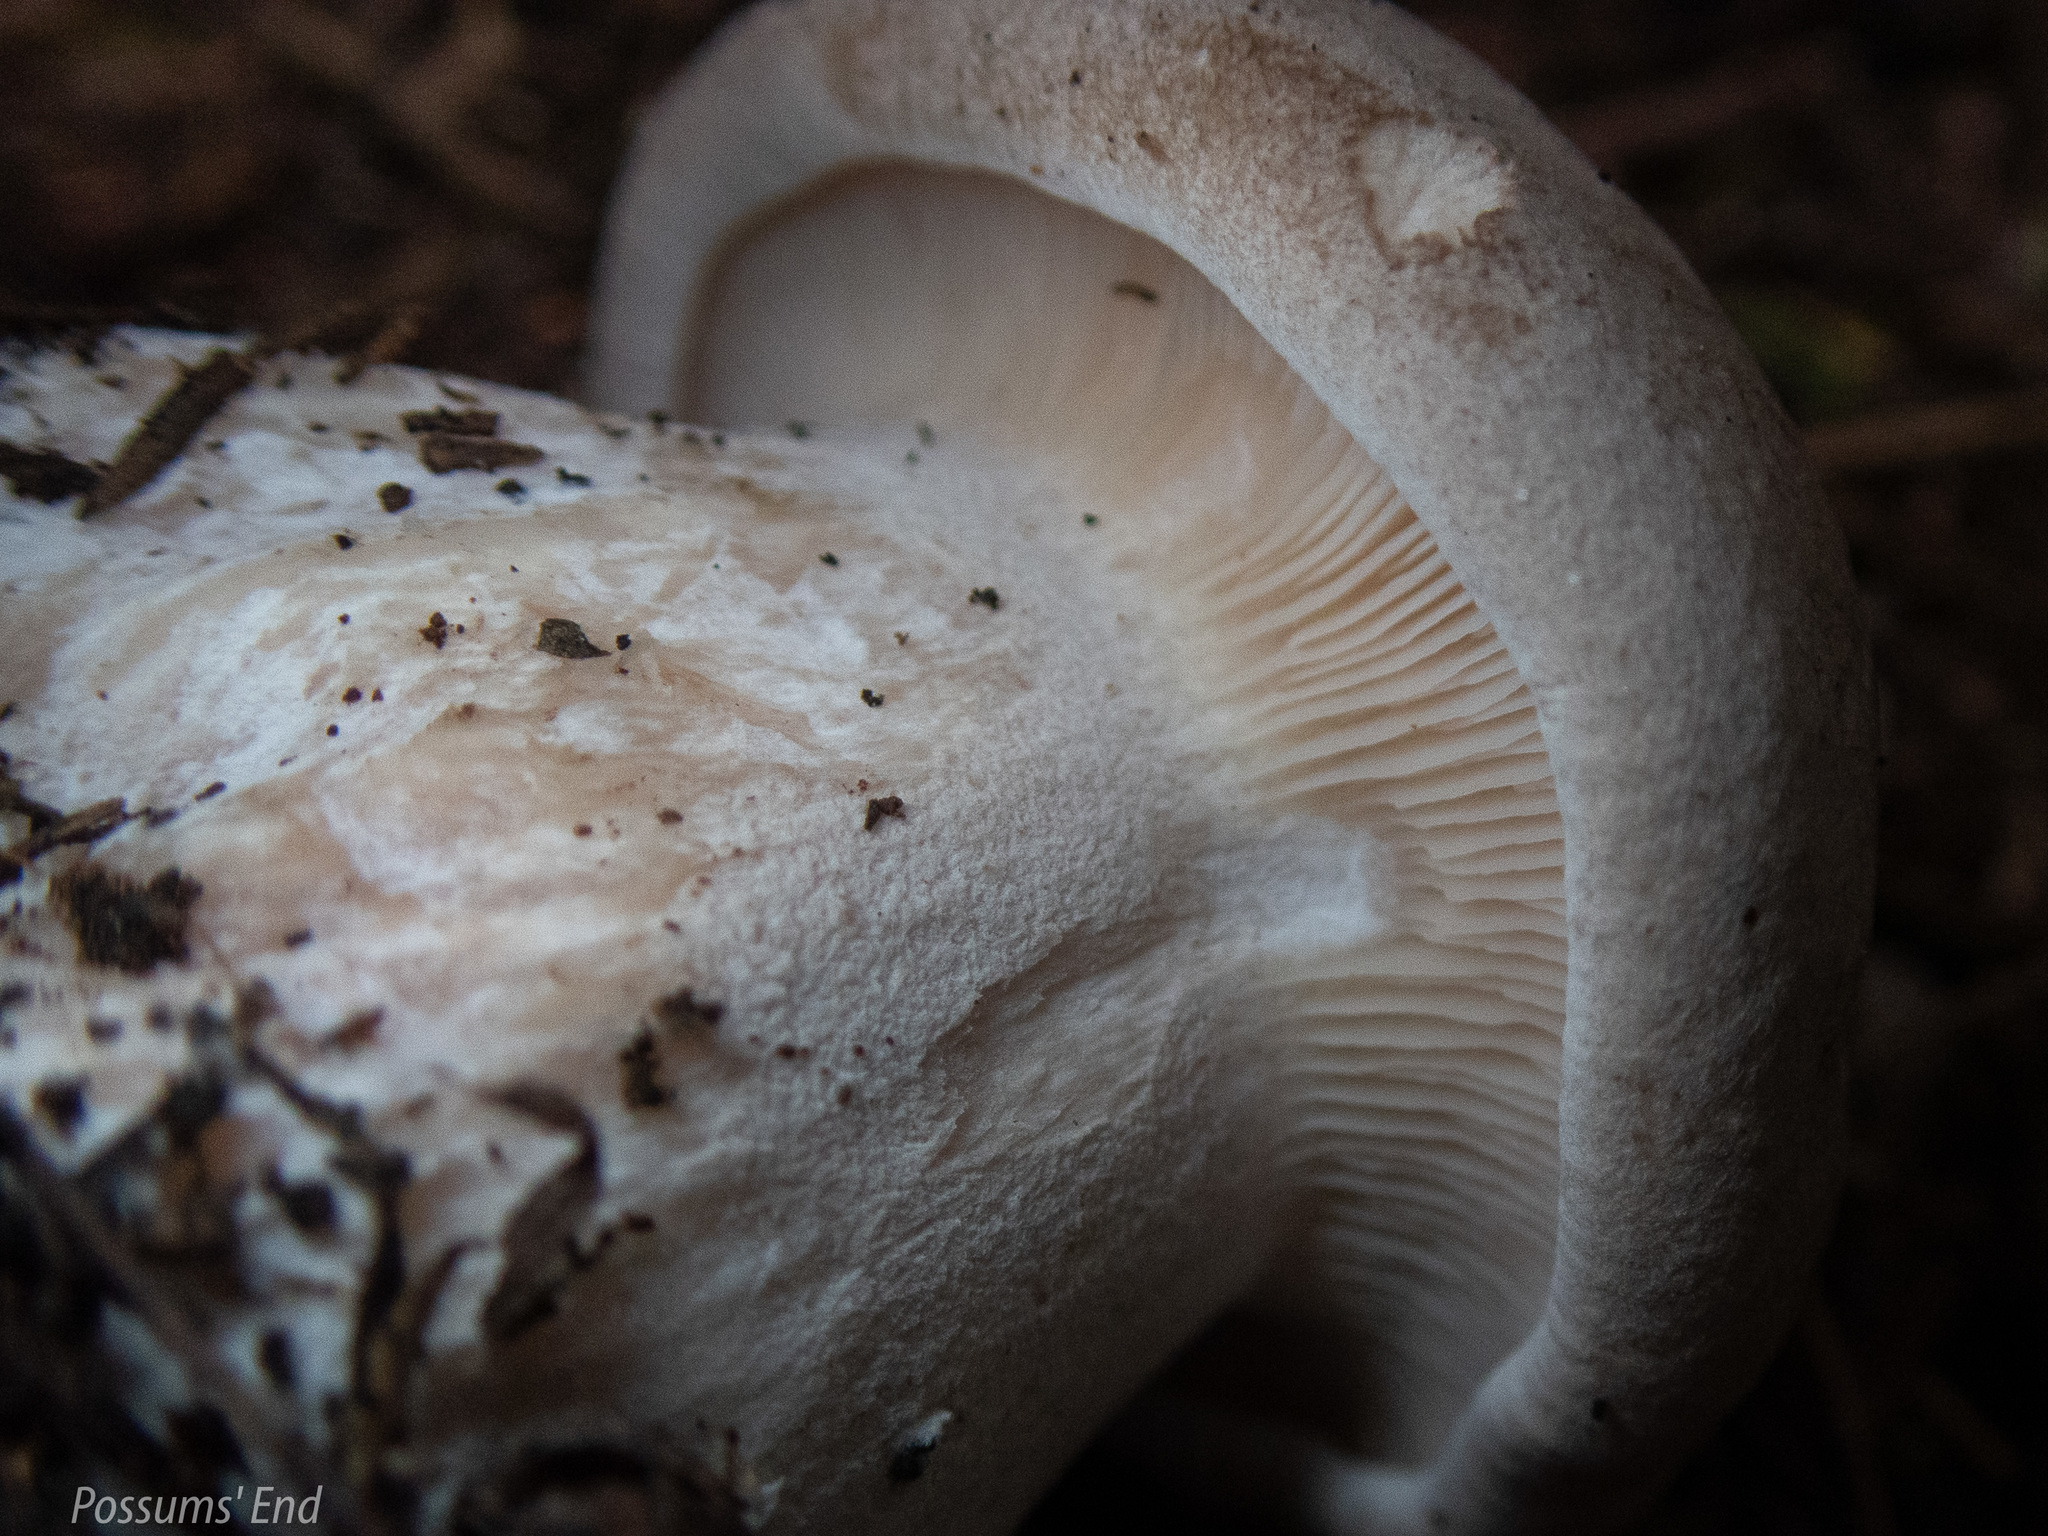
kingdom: Fungi
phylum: Basidiomycota
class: Agaricomycetes
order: Agaricales
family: Tricholomataceae
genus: Clitocybe
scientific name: Clitocybe nebularis
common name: Clouded agaric
